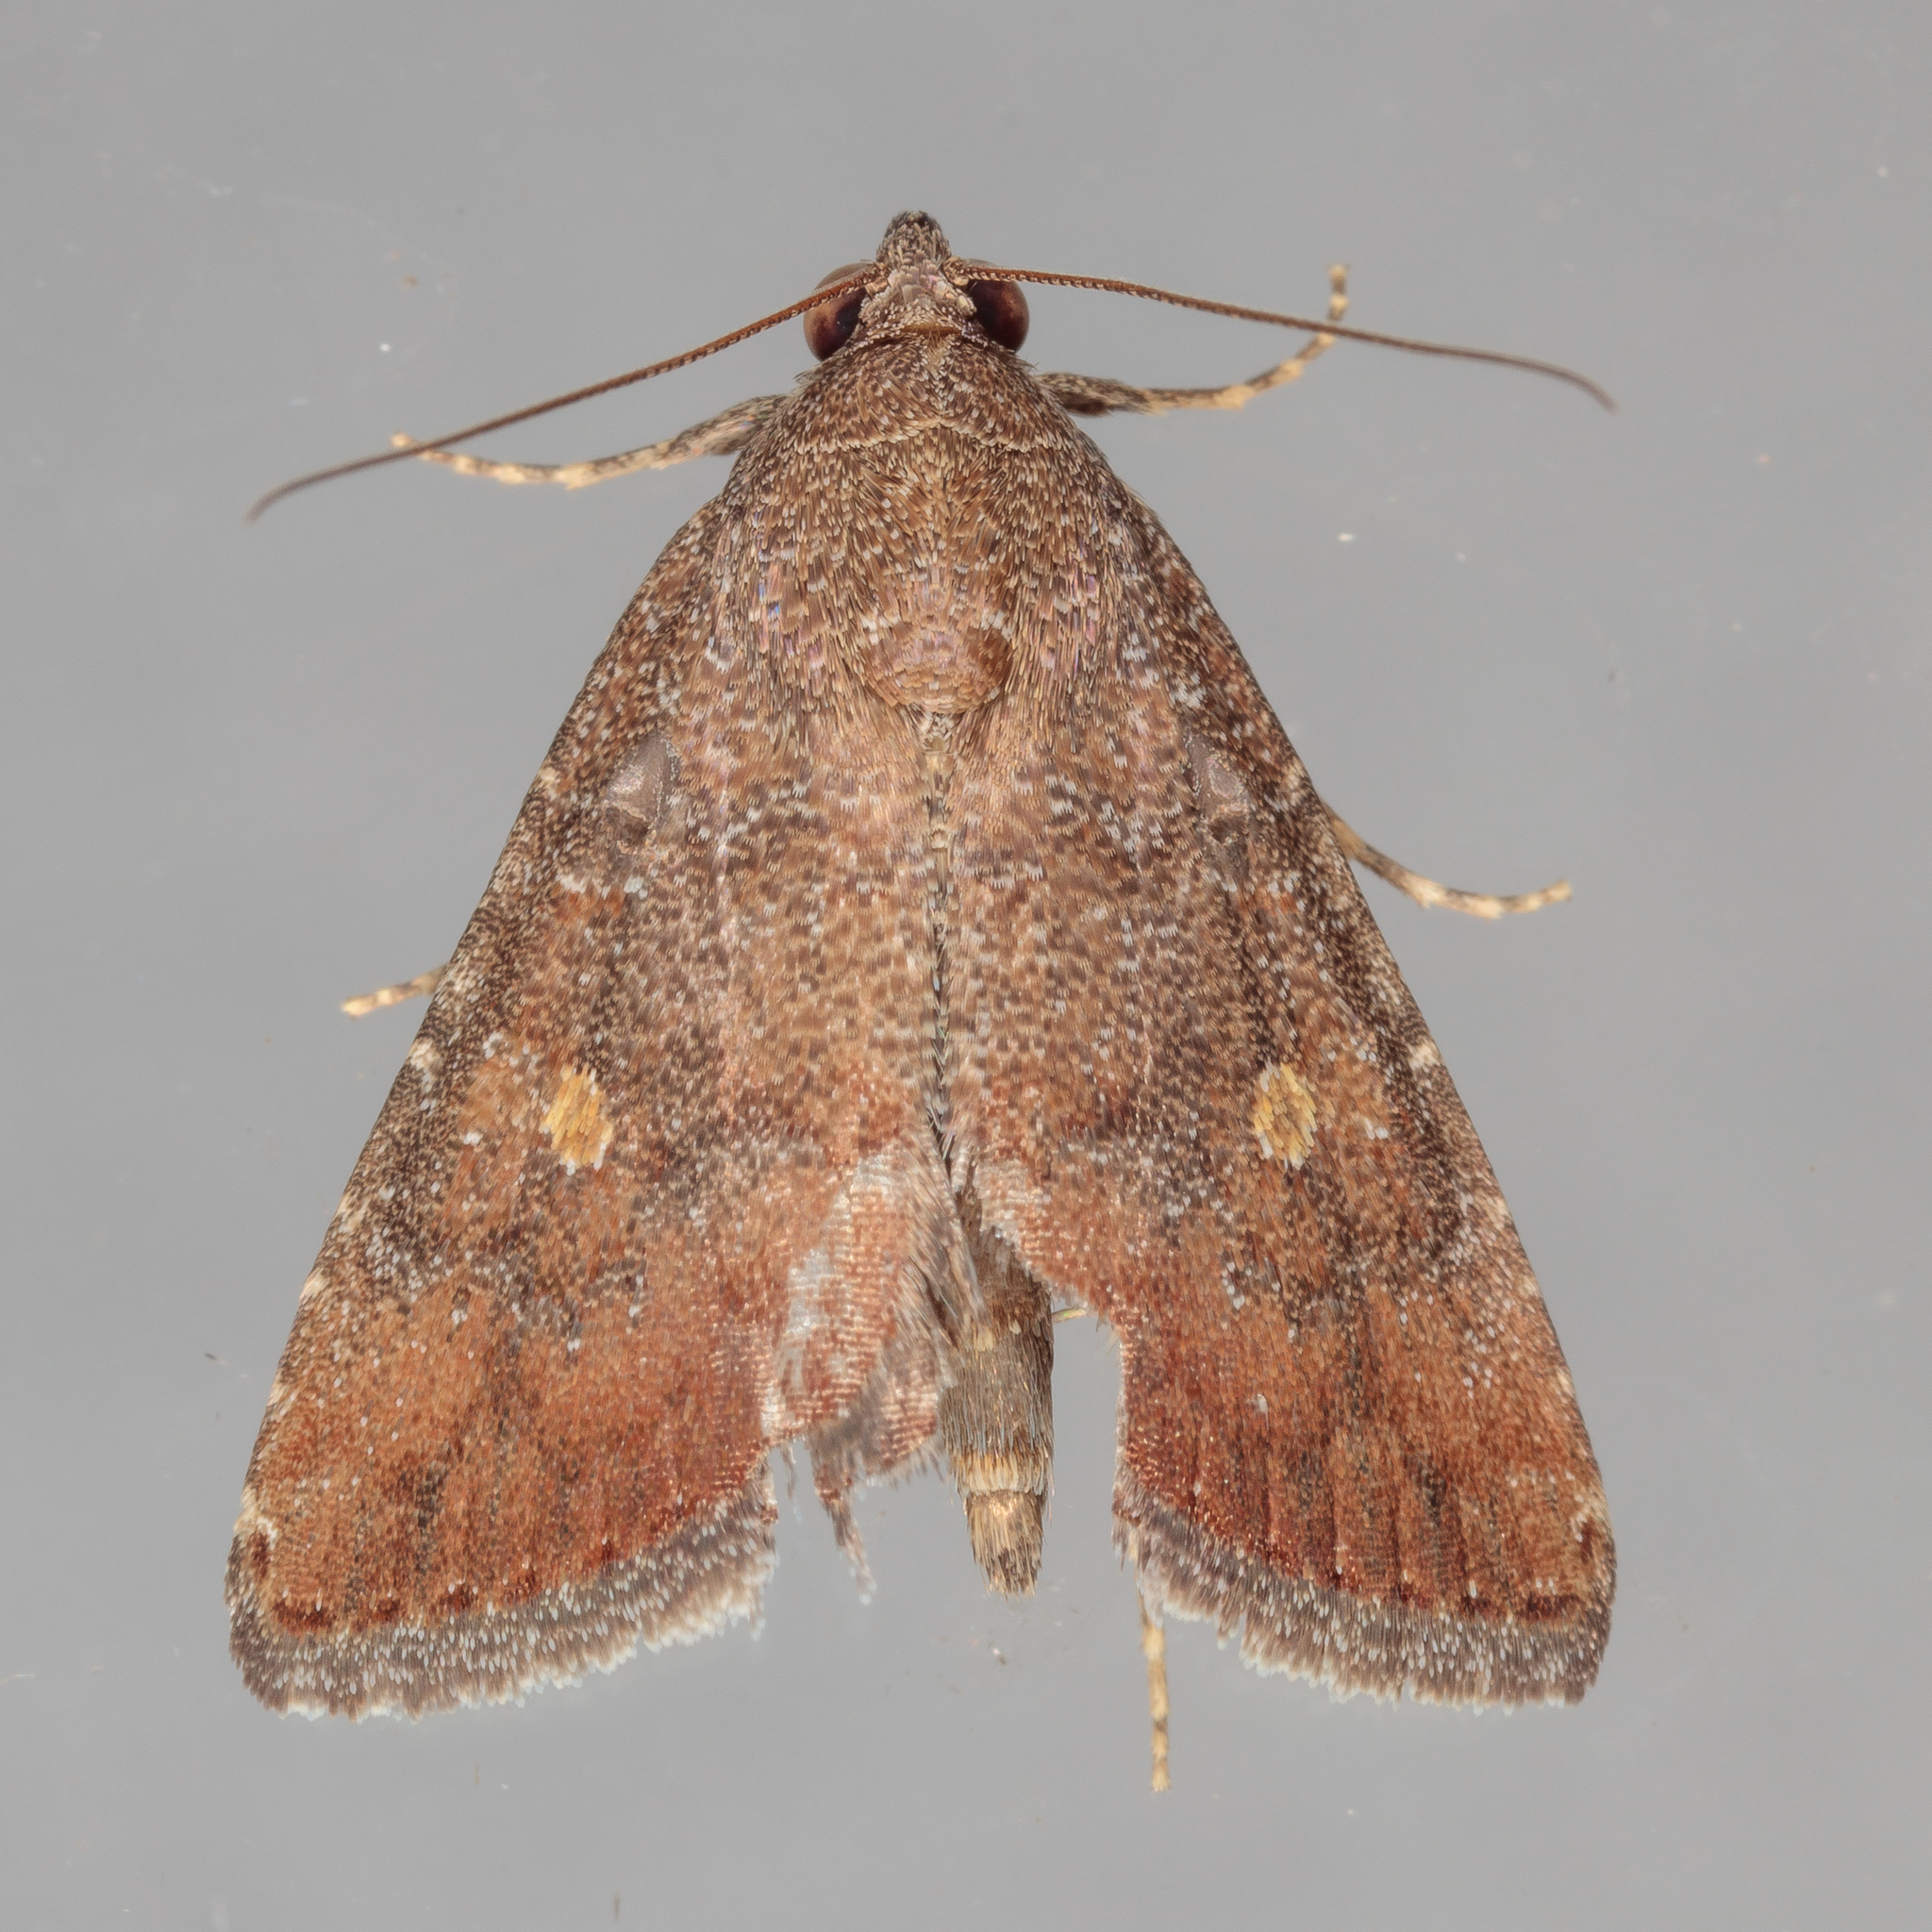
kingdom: Animalia
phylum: Arthropoda
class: Insecta
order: Lepidoptera
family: Noctuidae
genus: Amyna
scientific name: Amyna stricta
